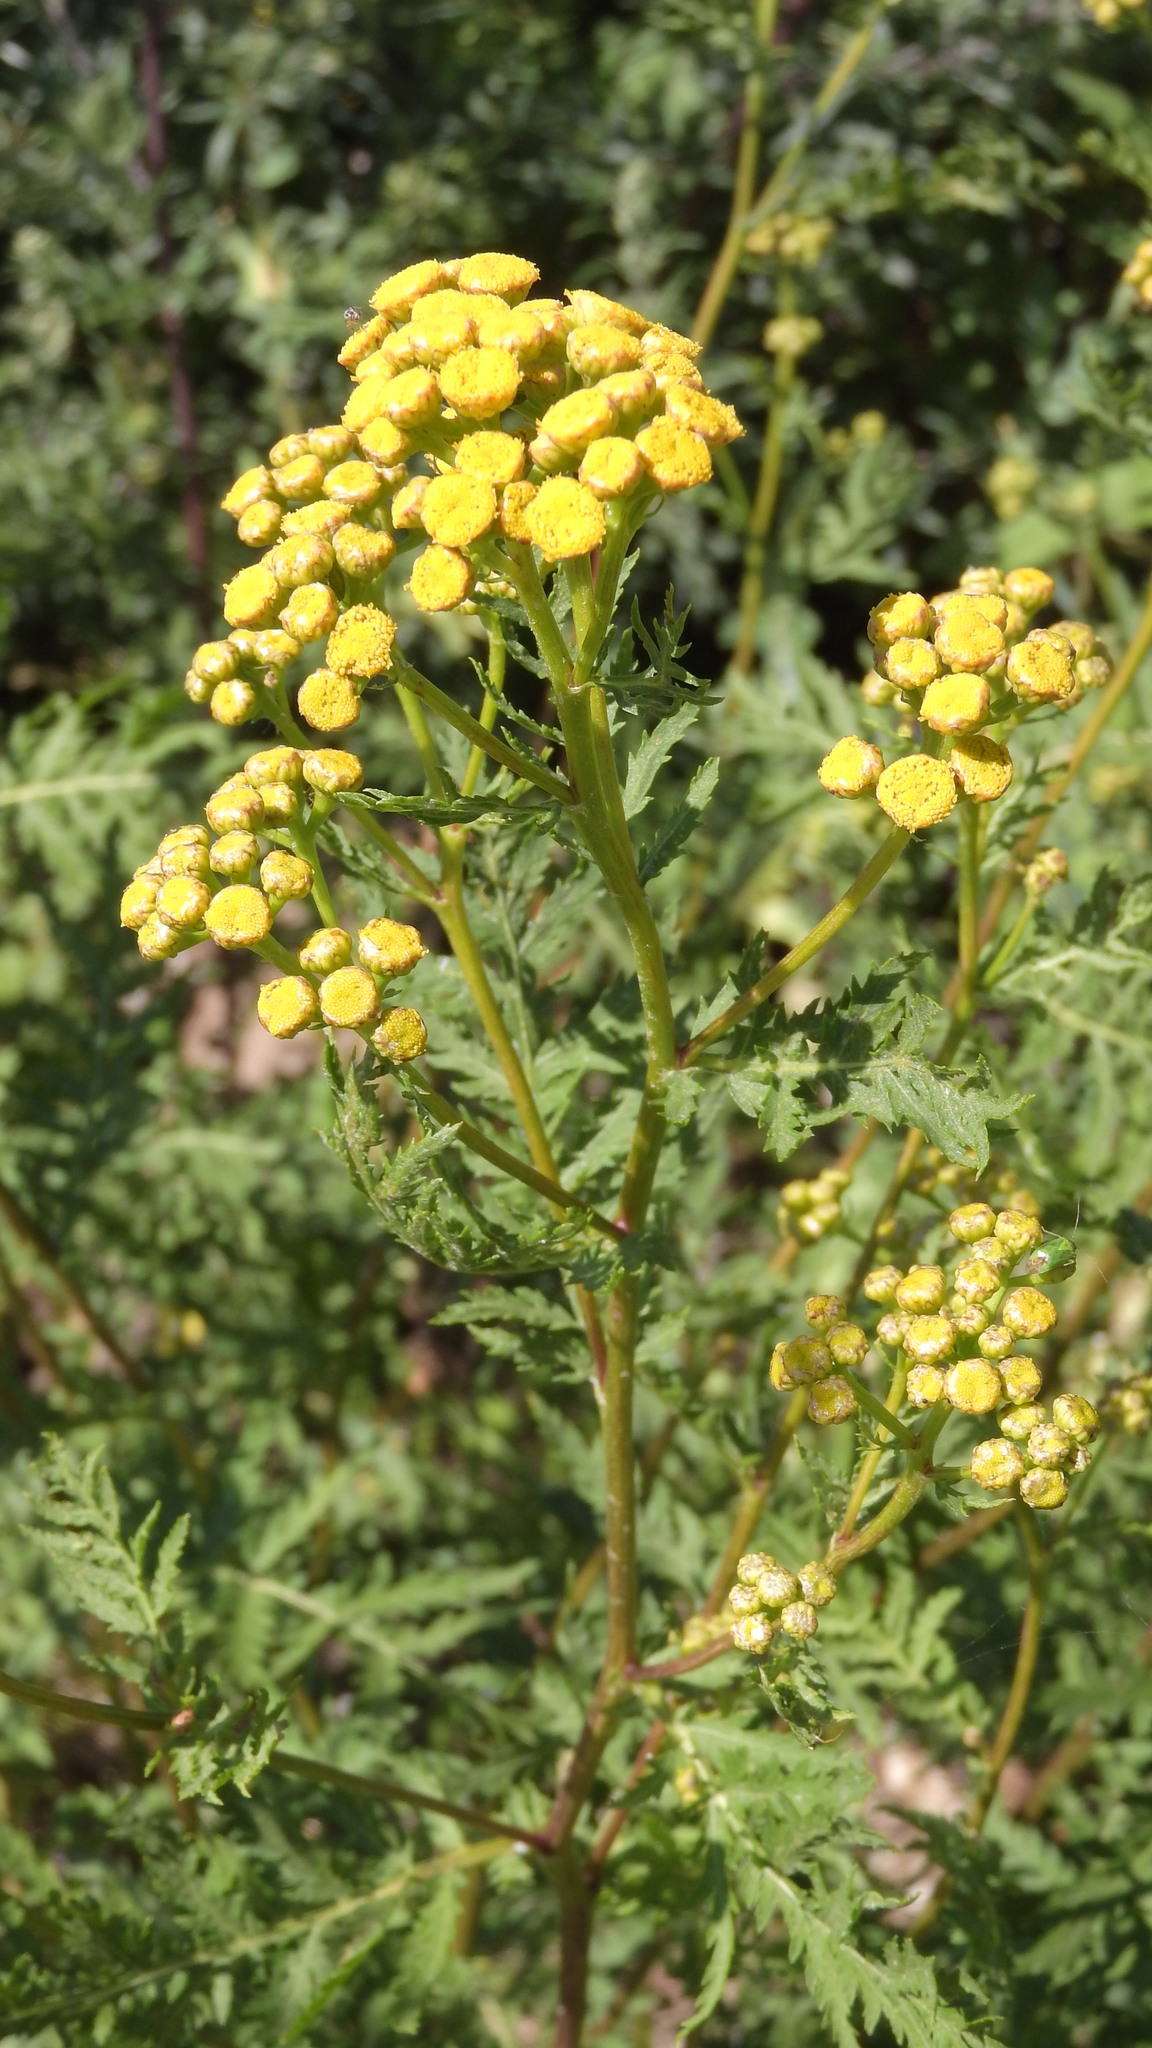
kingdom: Plantae
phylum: Tracheophyta
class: Magnoliopsida
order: Asterales
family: Asteraceae
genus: Tanacetum
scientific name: Tanacetum vulgare
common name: Common tansy
